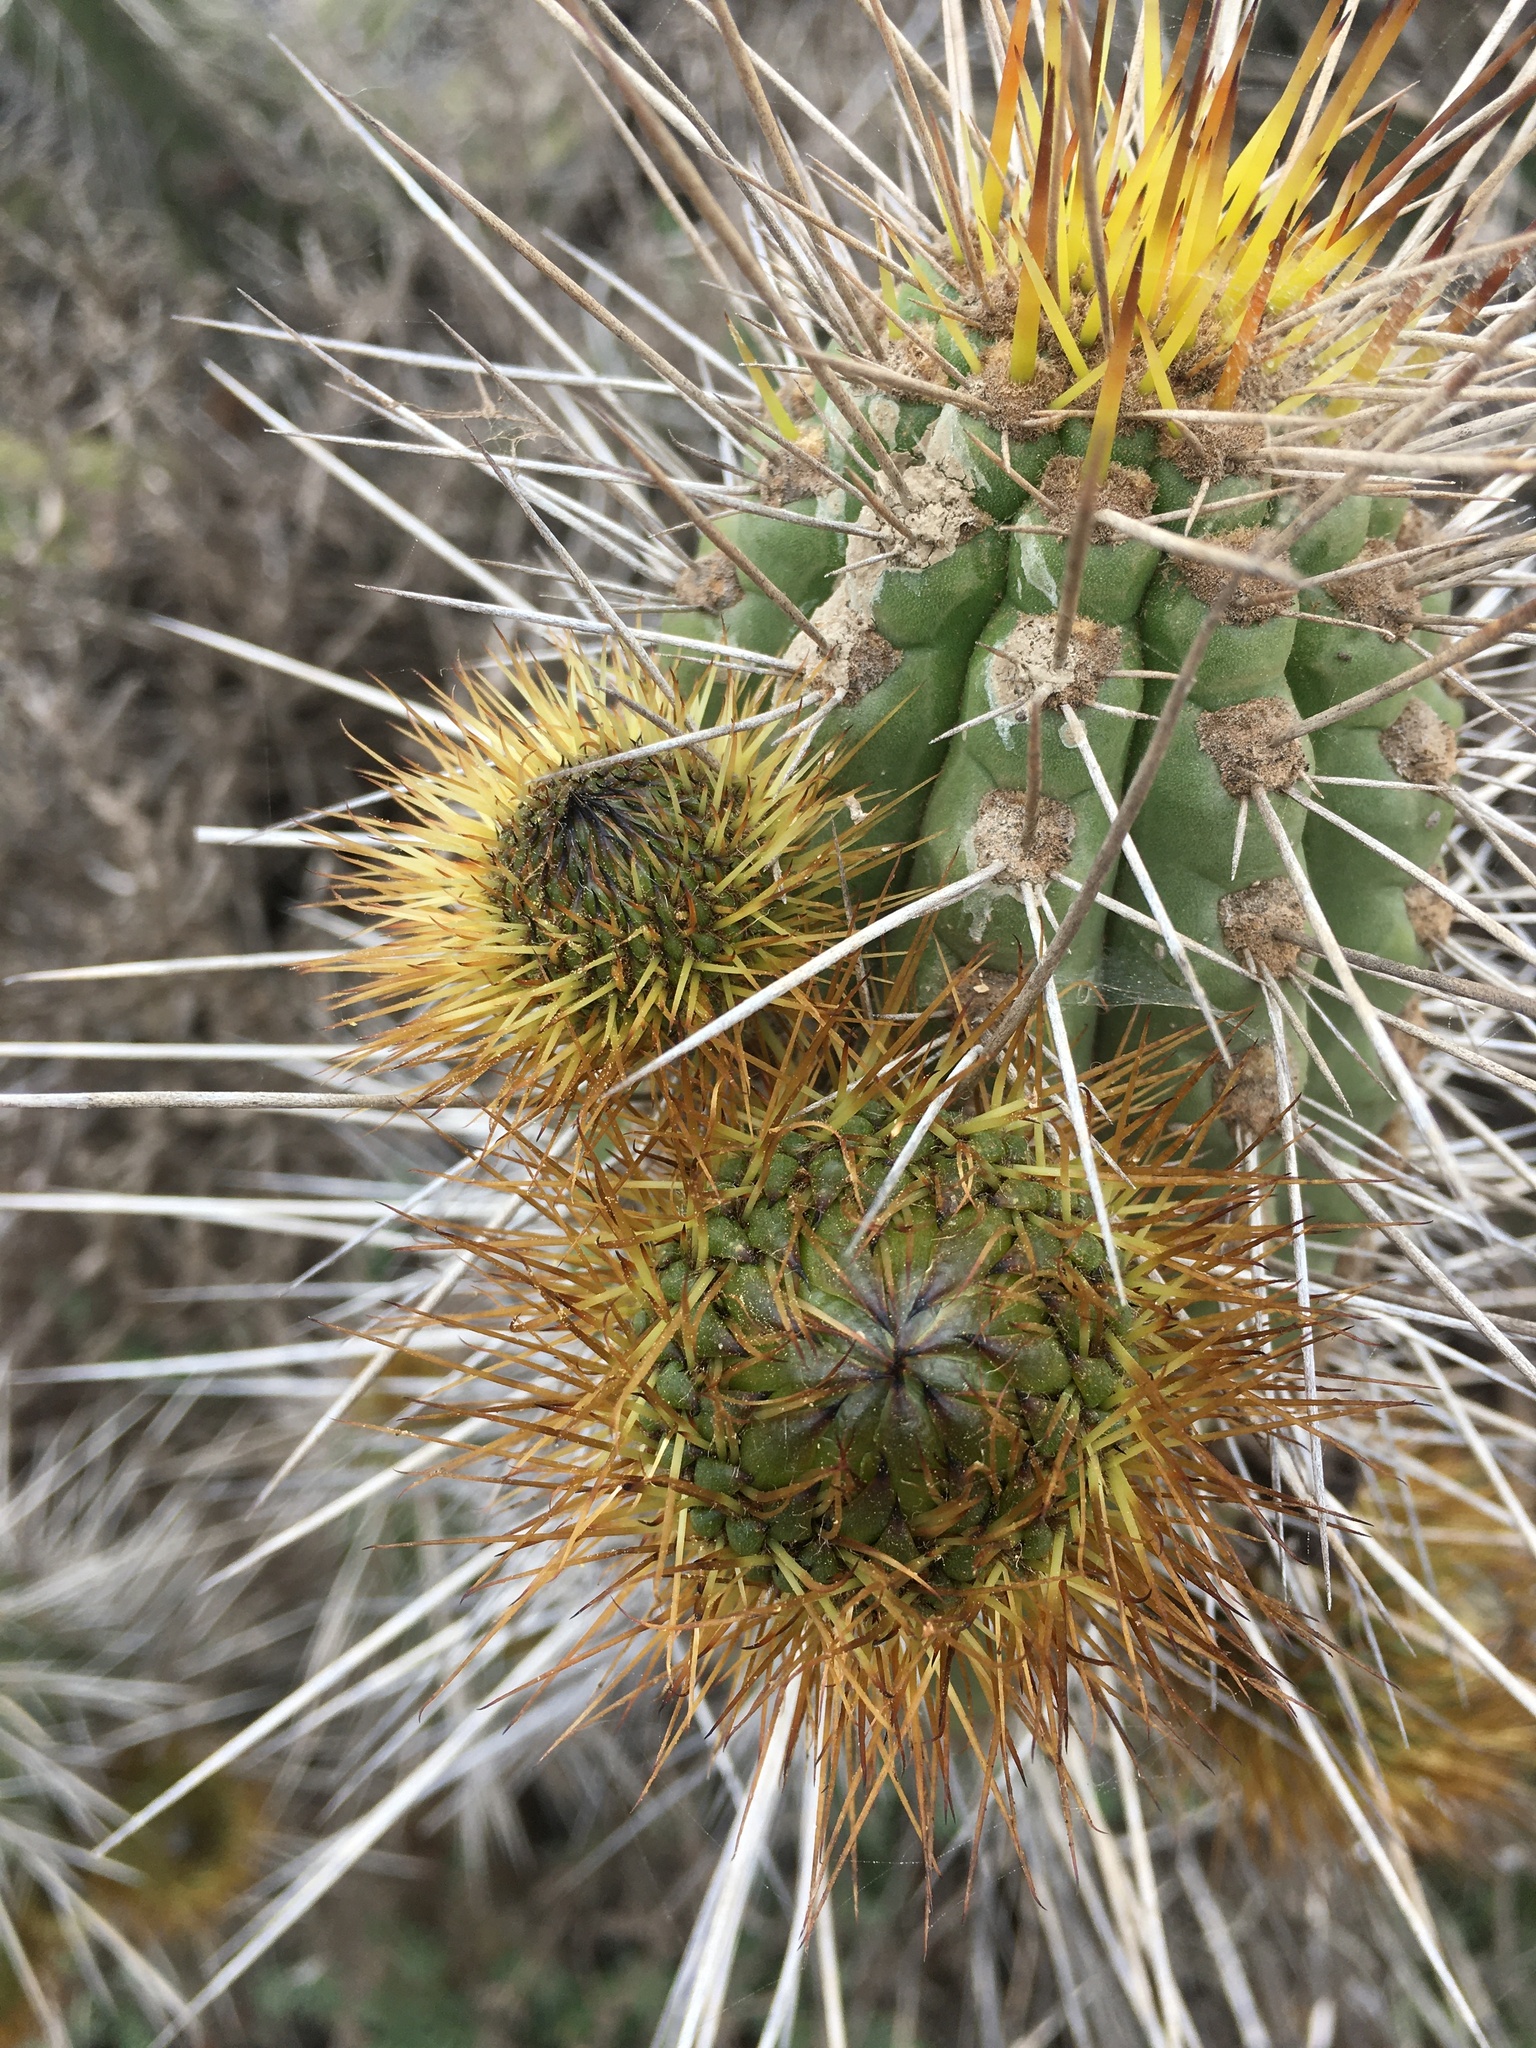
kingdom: Plantae
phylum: Tracheophyta
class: Magnoliopsida
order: Caryophyllales
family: Cactaceae
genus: Eulychnia
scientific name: Eulychnia castanea
